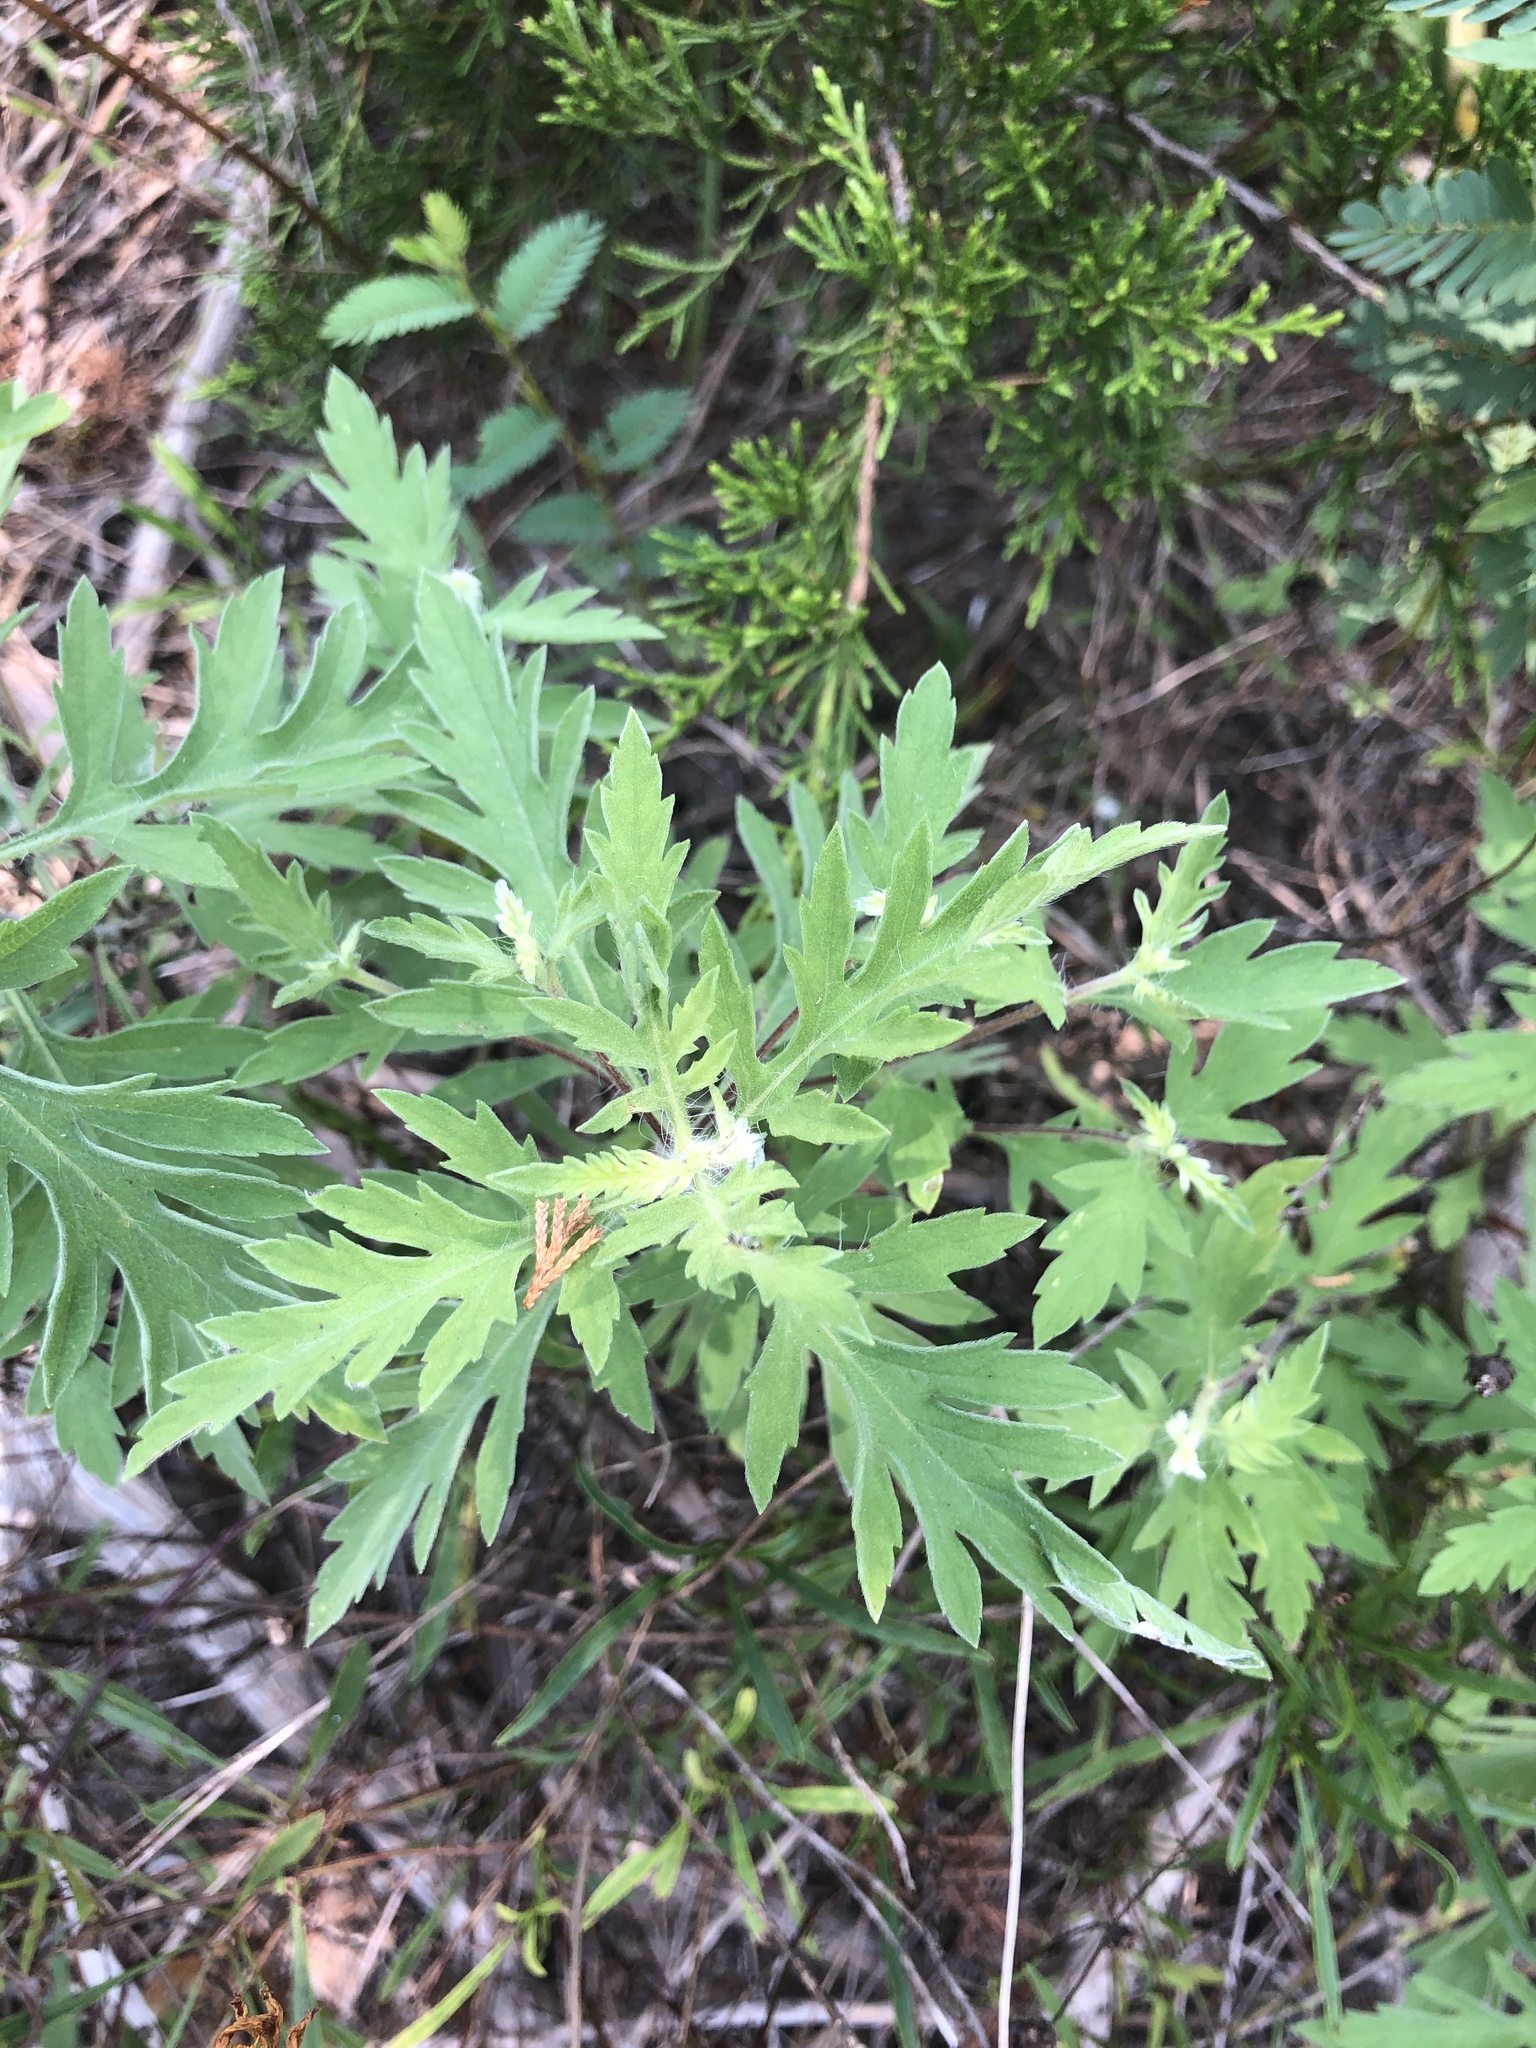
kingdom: Plantae
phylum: Tracheophyta
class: Magnoliopsida
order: Asterales
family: Asteraceae
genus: Ambrosia
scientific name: Ambrosia psilostachya
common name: Perennial ragweed
